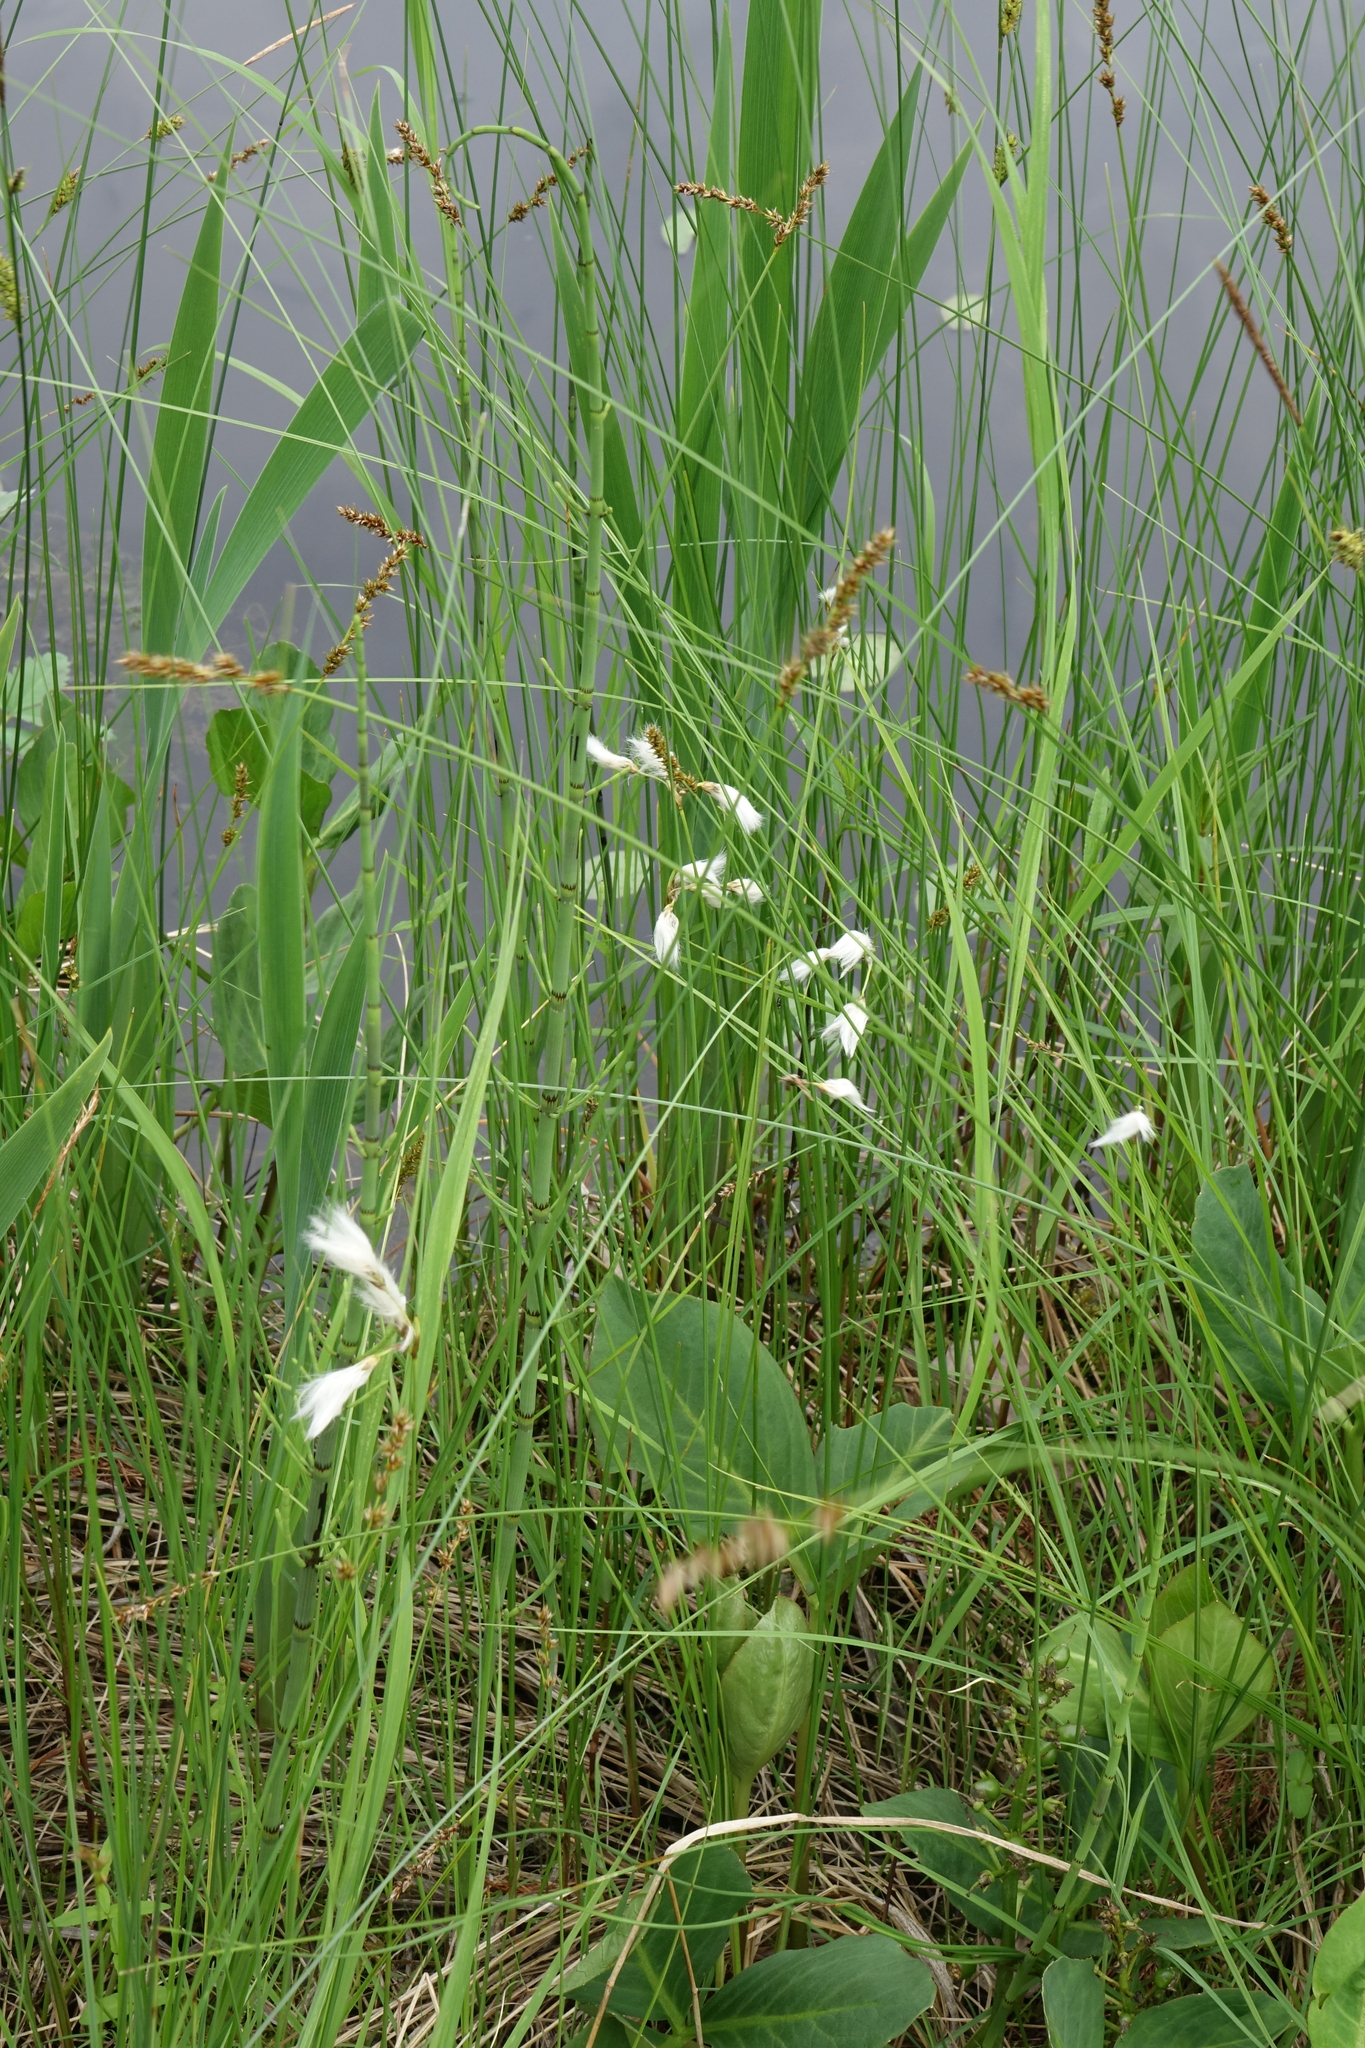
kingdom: Plantae
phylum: Tracheophyta
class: Liliopsida
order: Poales
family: Cyperaceae
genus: Eriophorum
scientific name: Eriophorum gracile
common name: Slender cottongrass
